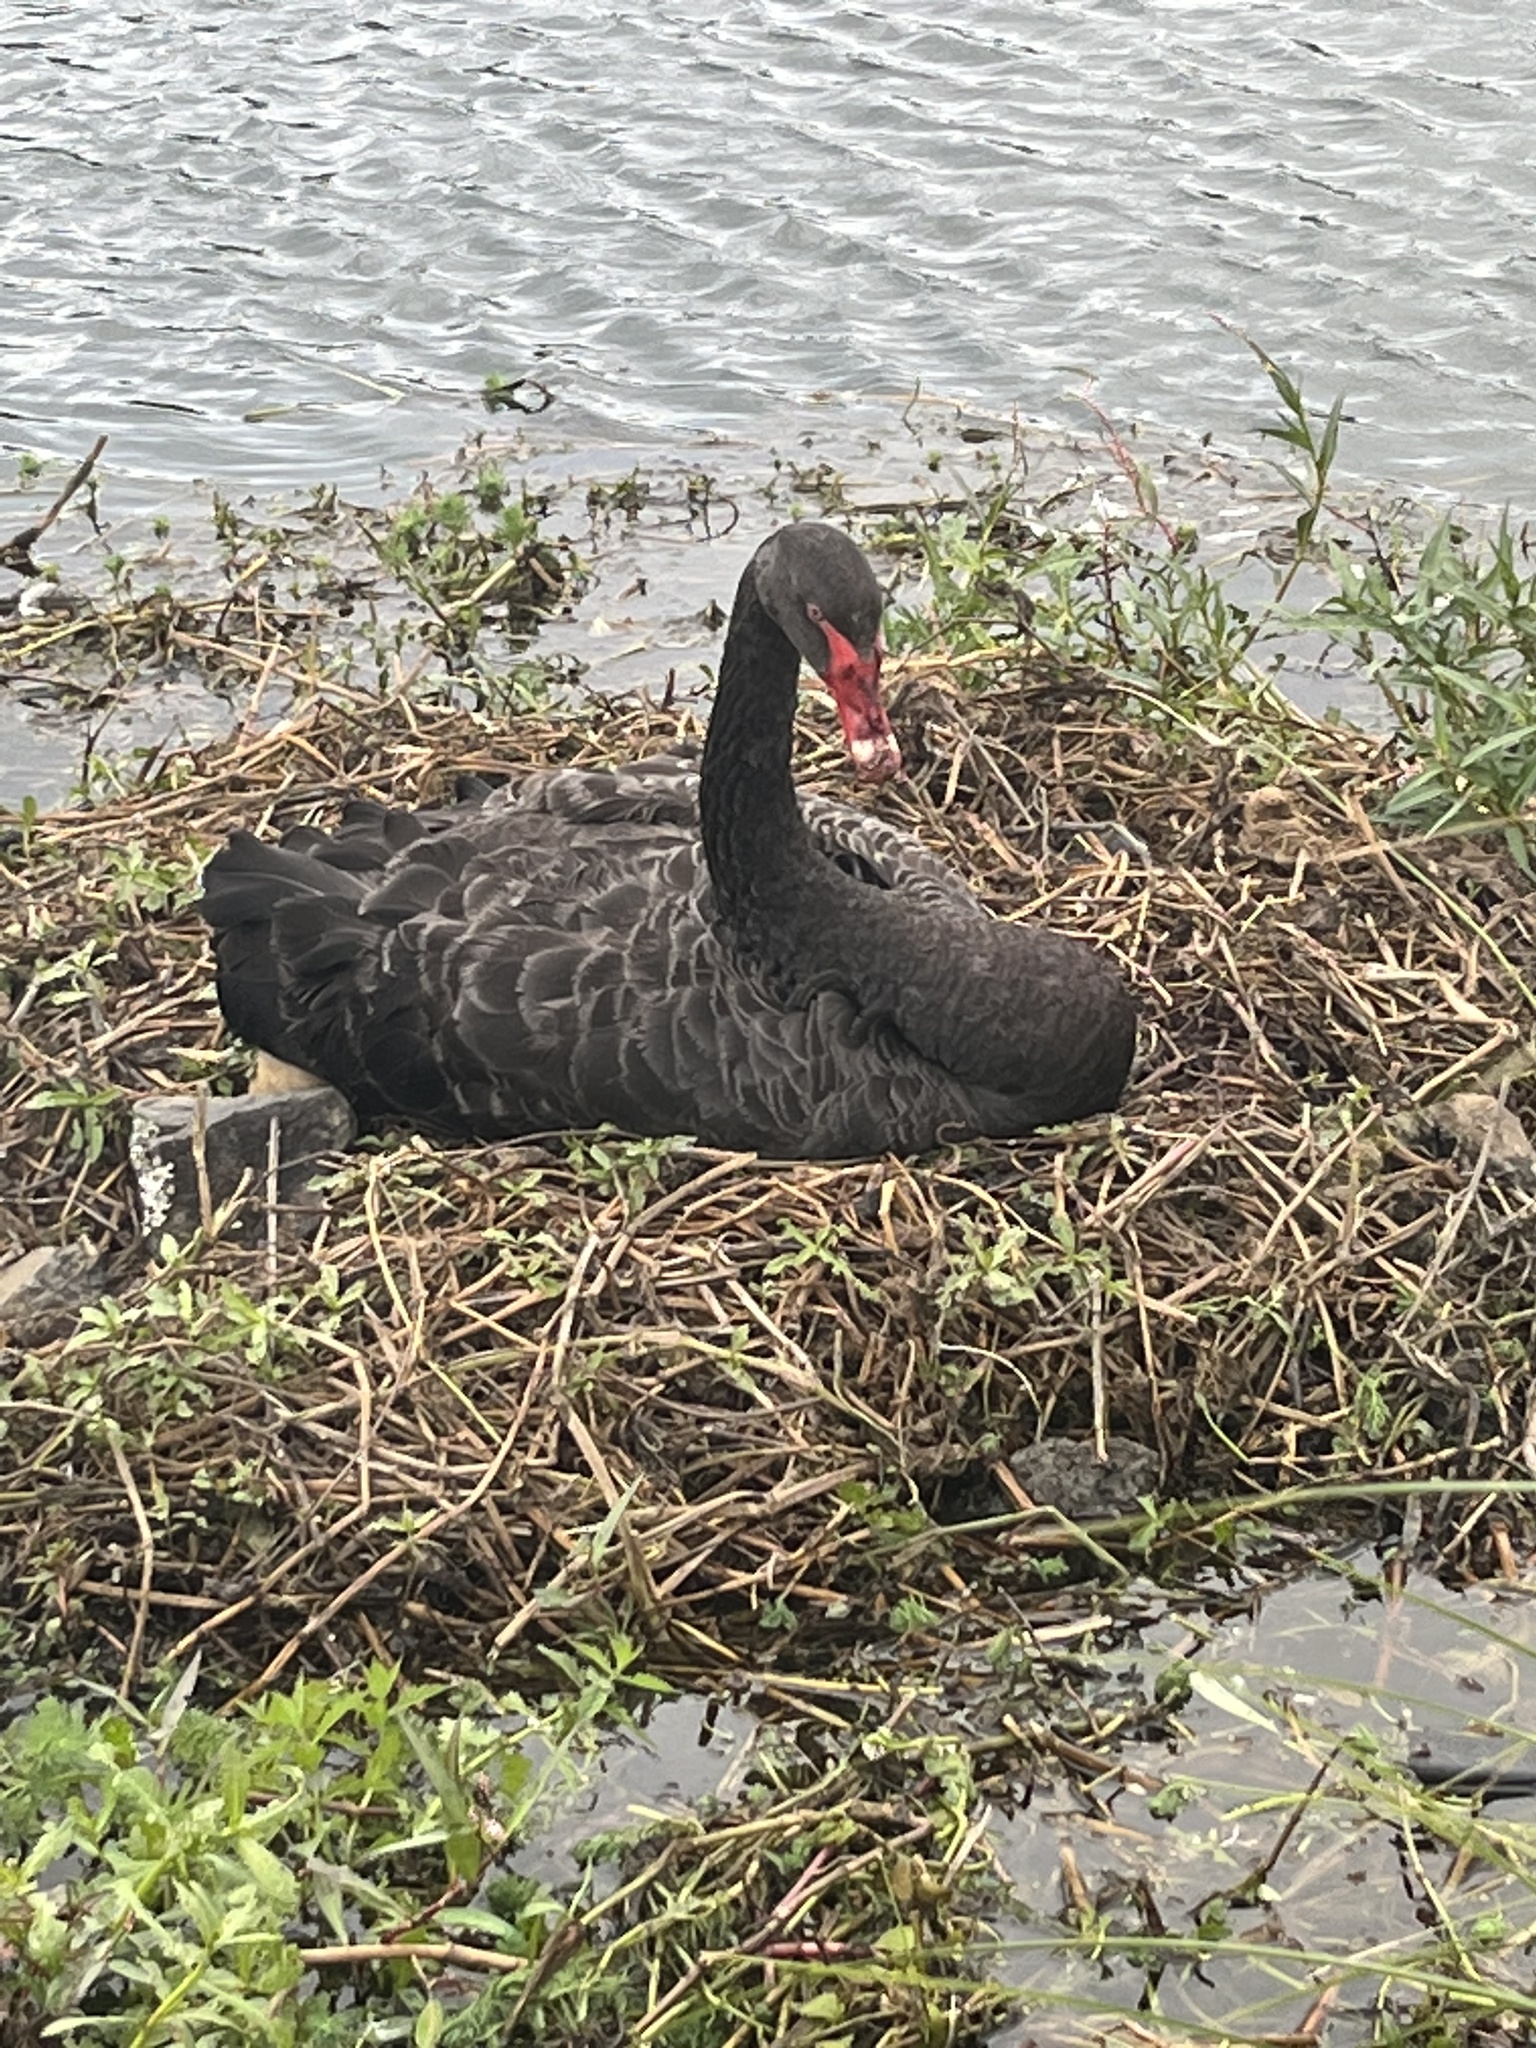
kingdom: Animalia
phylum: Chordata
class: Aves
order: Anseriformes
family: Anatidae
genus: Cygnus
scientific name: Cygnus atratus
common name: Black swan
